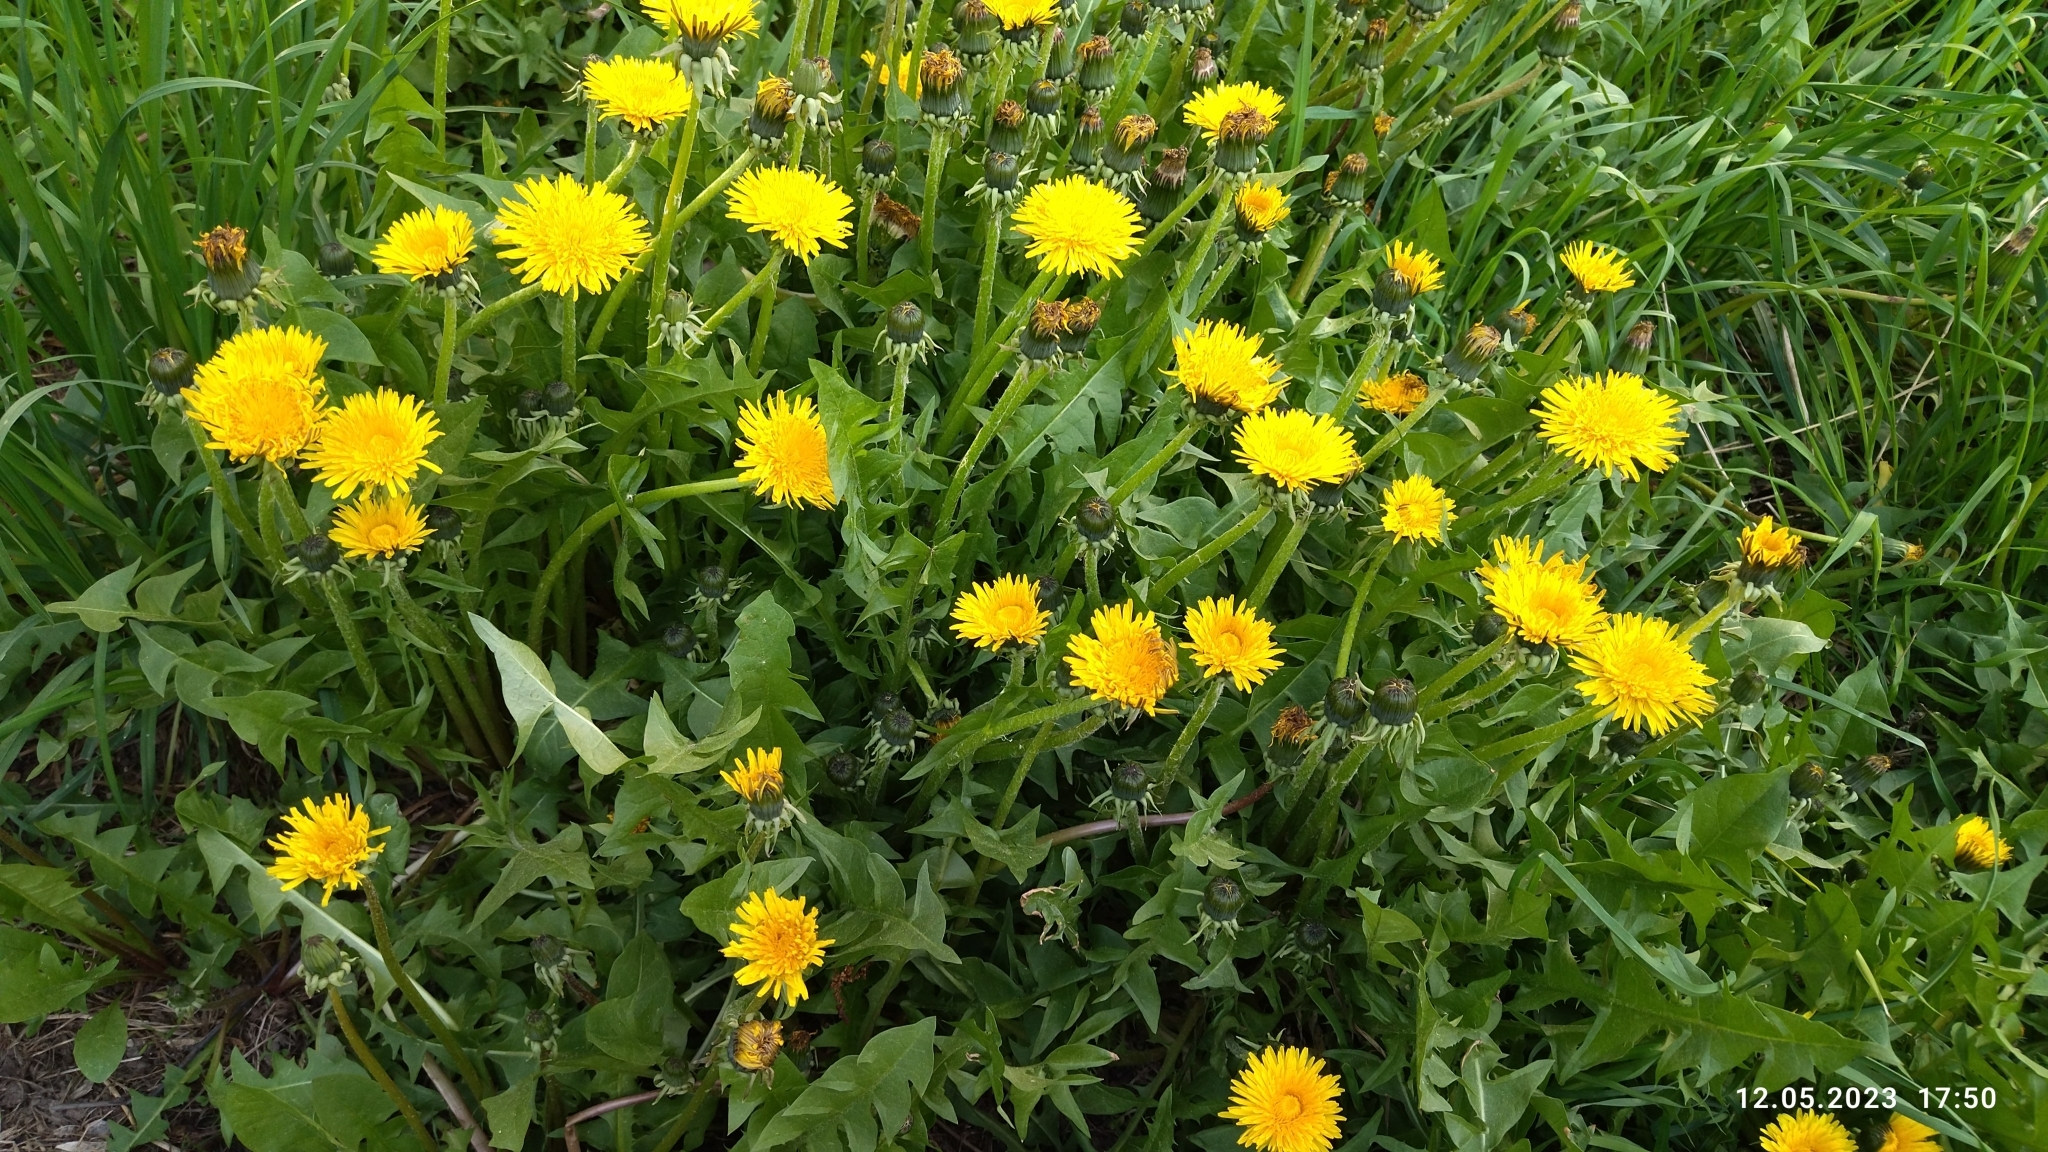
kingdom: Plantae
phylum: Tracheophyta
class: Magnoliopsida
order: Asterales
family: Asteraceae
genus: Taraxacum
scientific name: Taraxacum officinale
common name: Common dandelion
